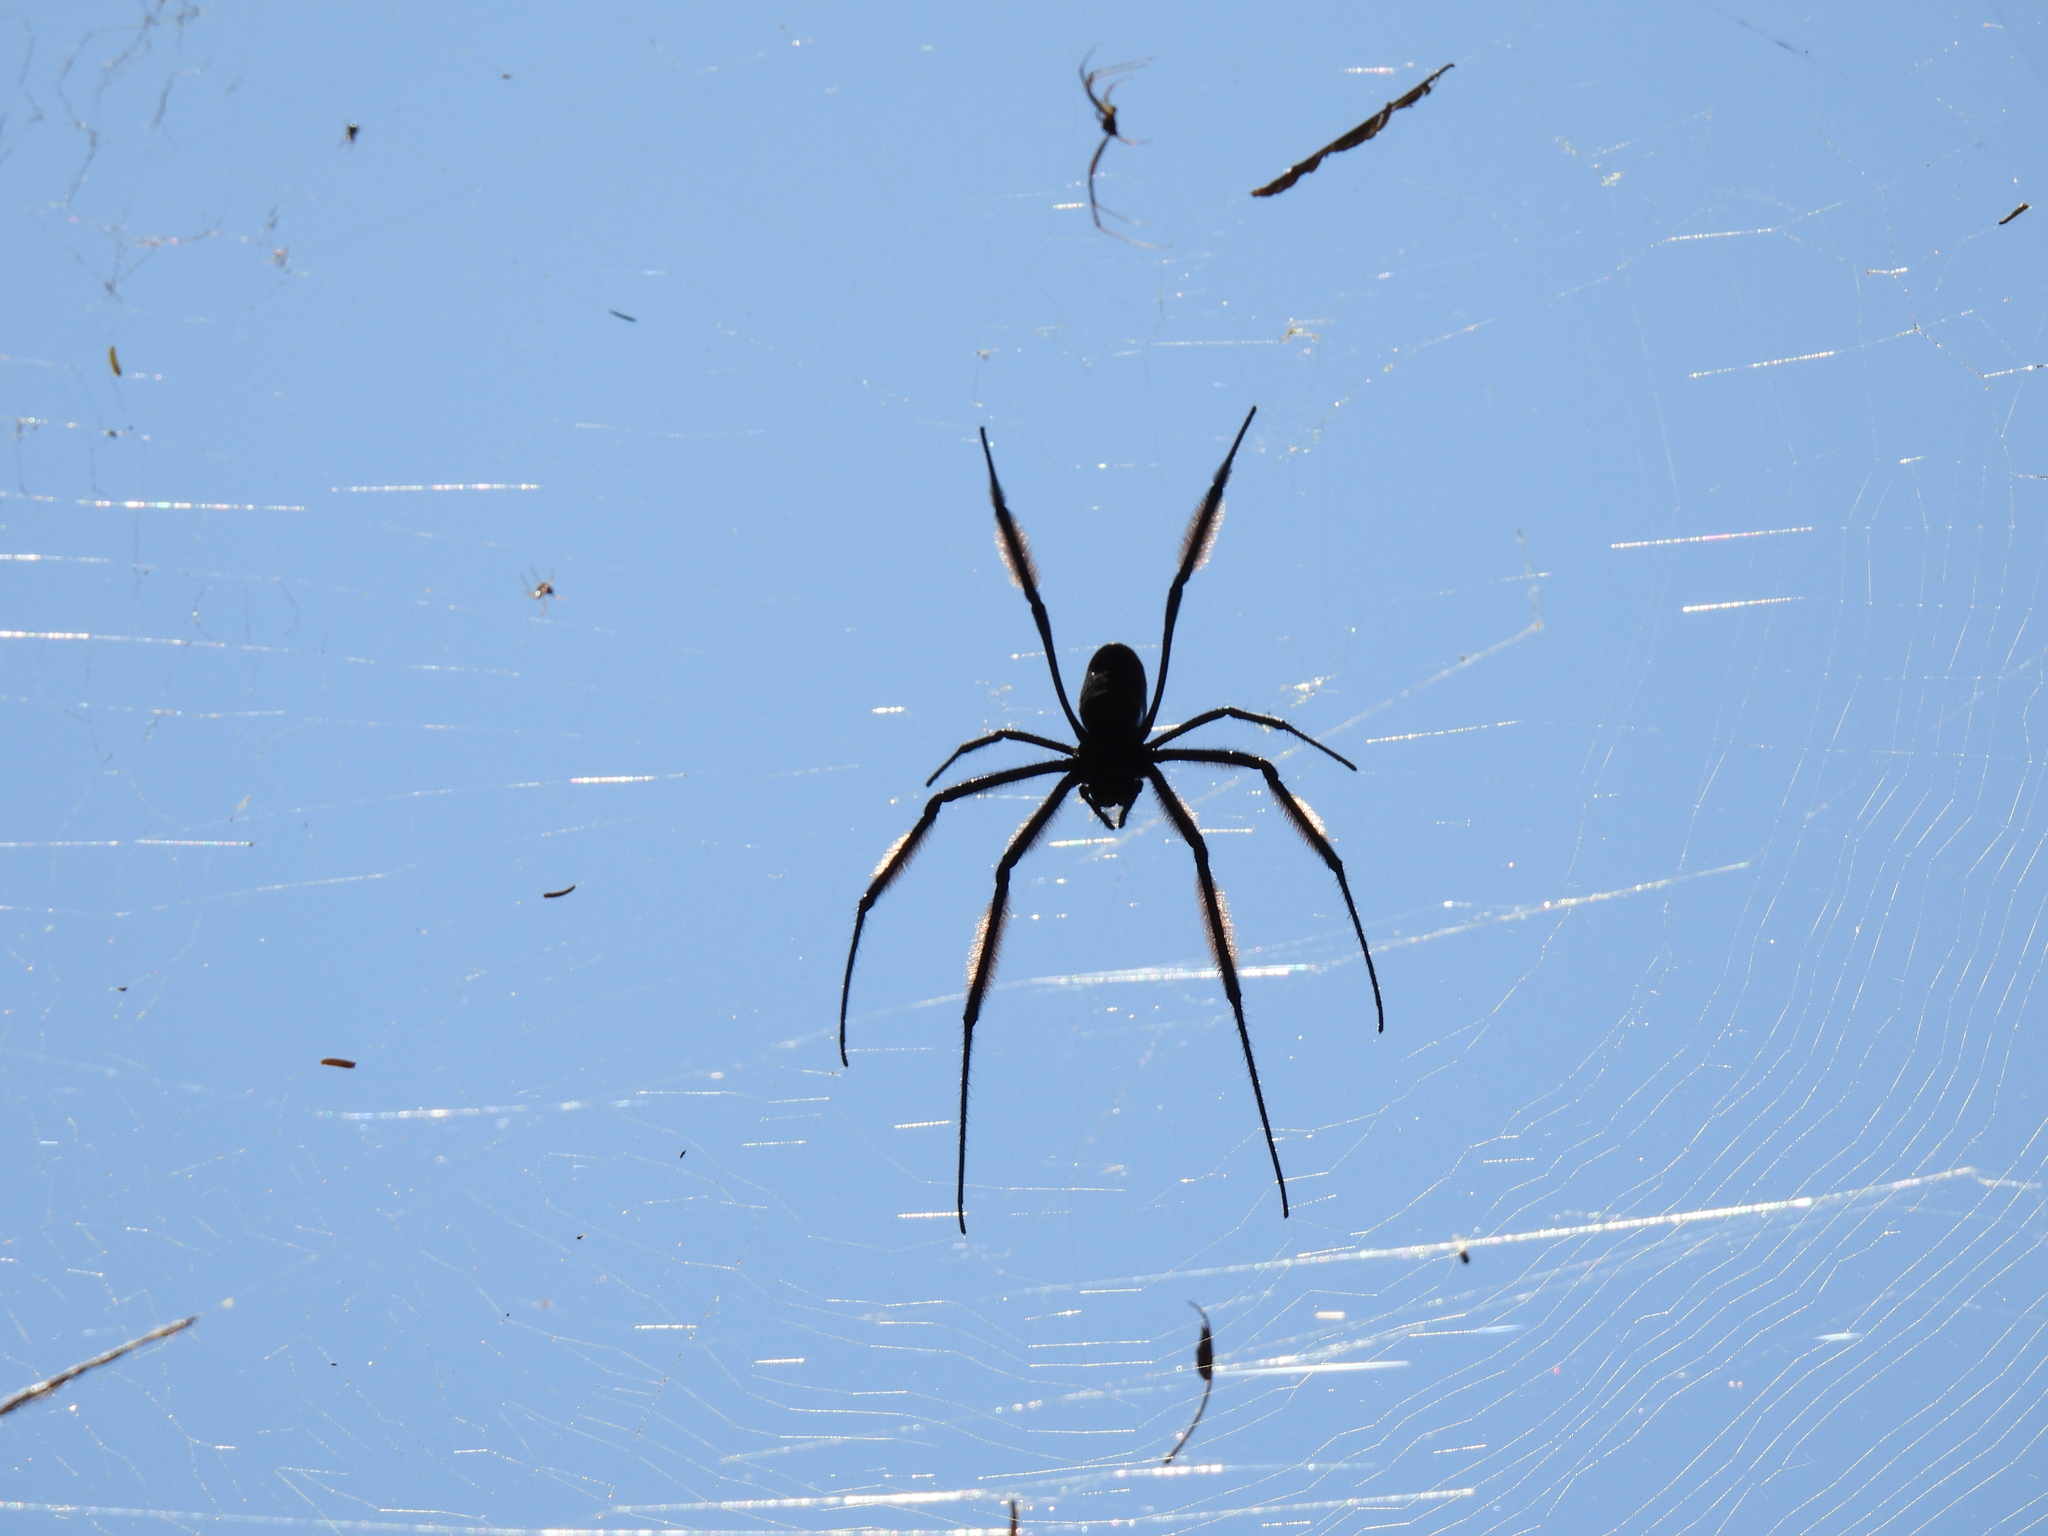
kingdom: Animalia
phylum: Arthropoda
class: Arachnida
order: Araneae
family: Araneidae
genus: Trichonephila
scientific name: Trichonephila fenestrata
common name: Hairy golden orb weaver
